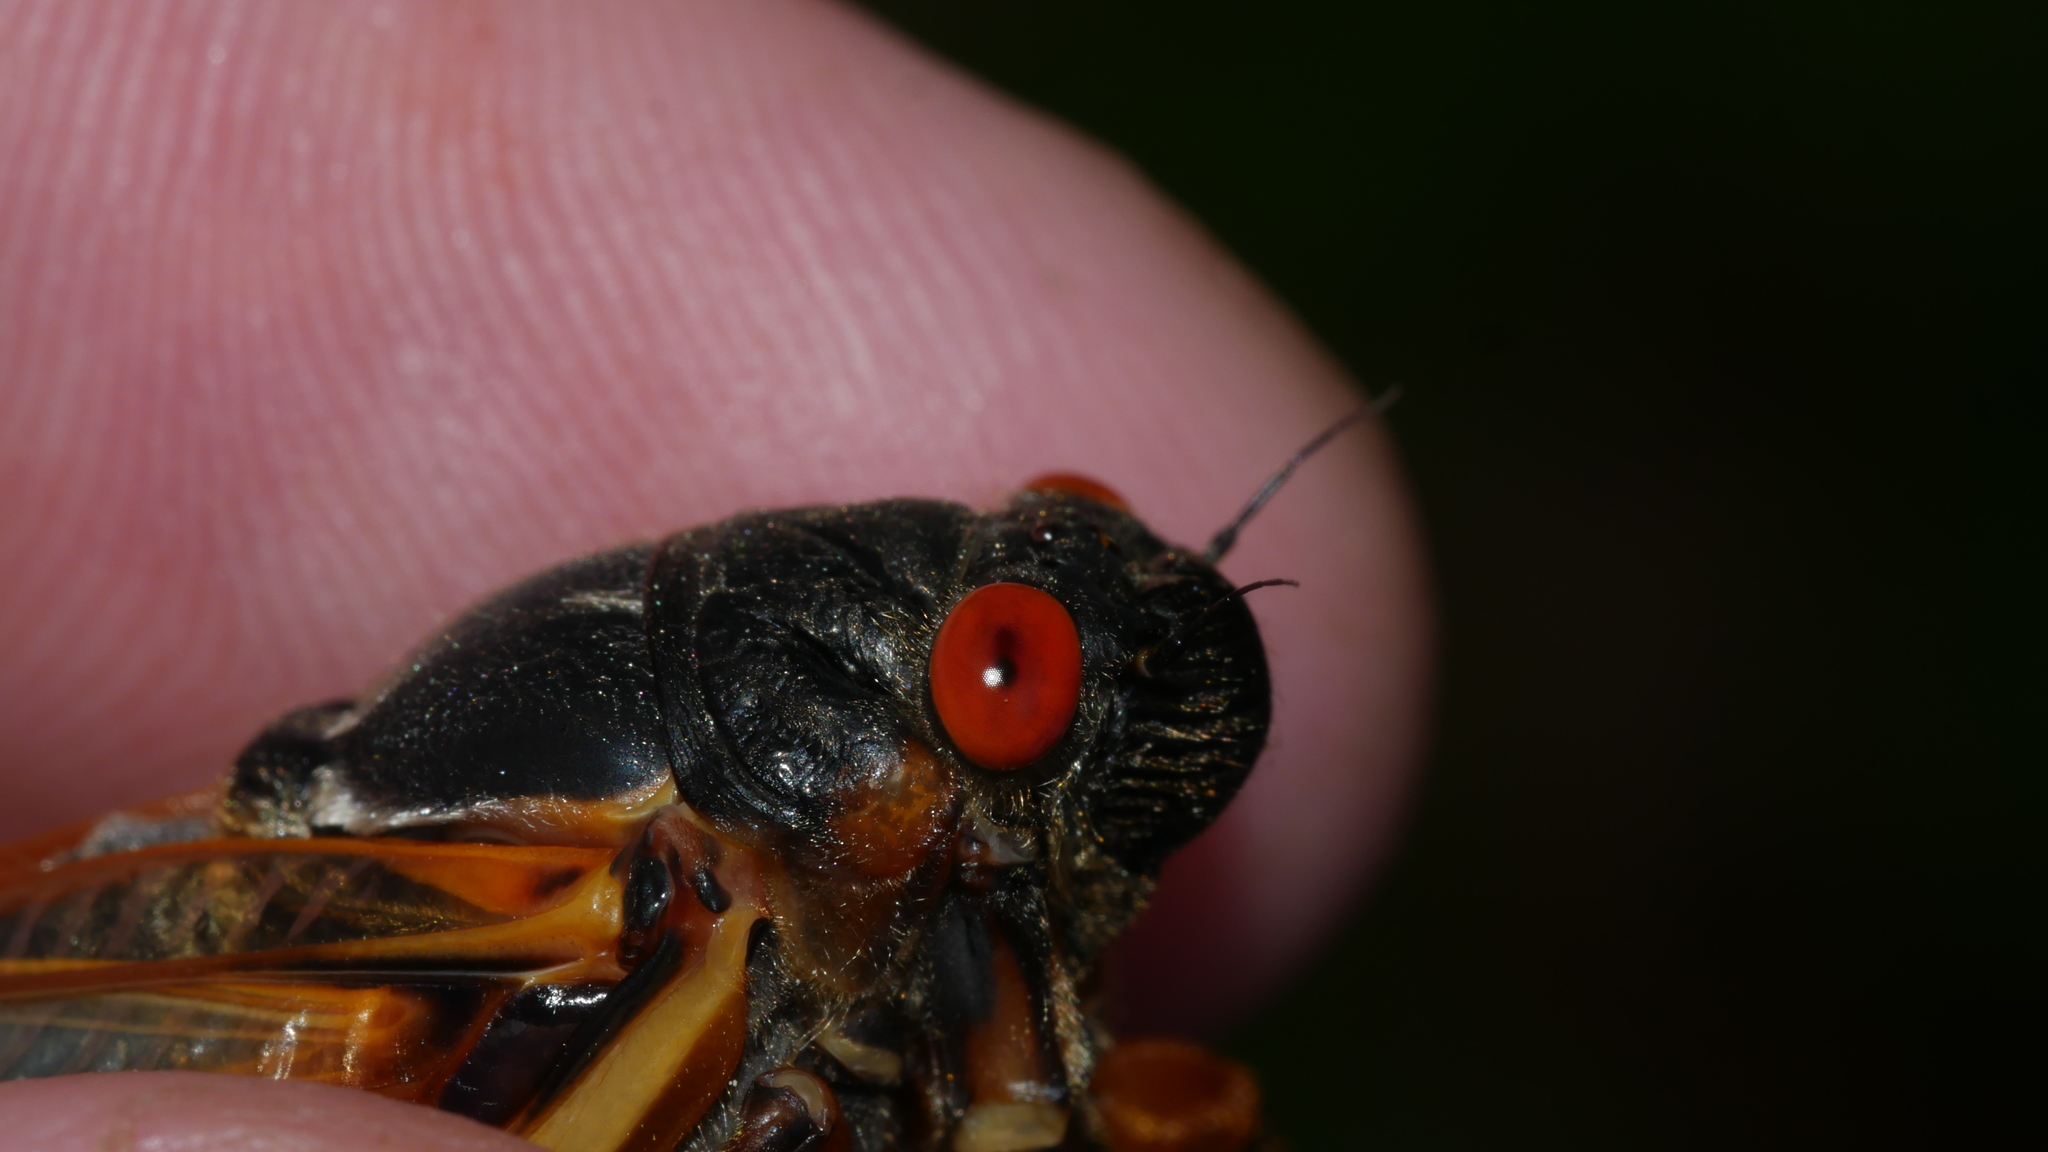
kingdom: Animalia
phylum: Arthropoda
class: Insecta
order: Hemiptera
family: Cicadidae
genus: Magicicada
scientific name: Magicicada septendecim
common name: Periodical cicada
